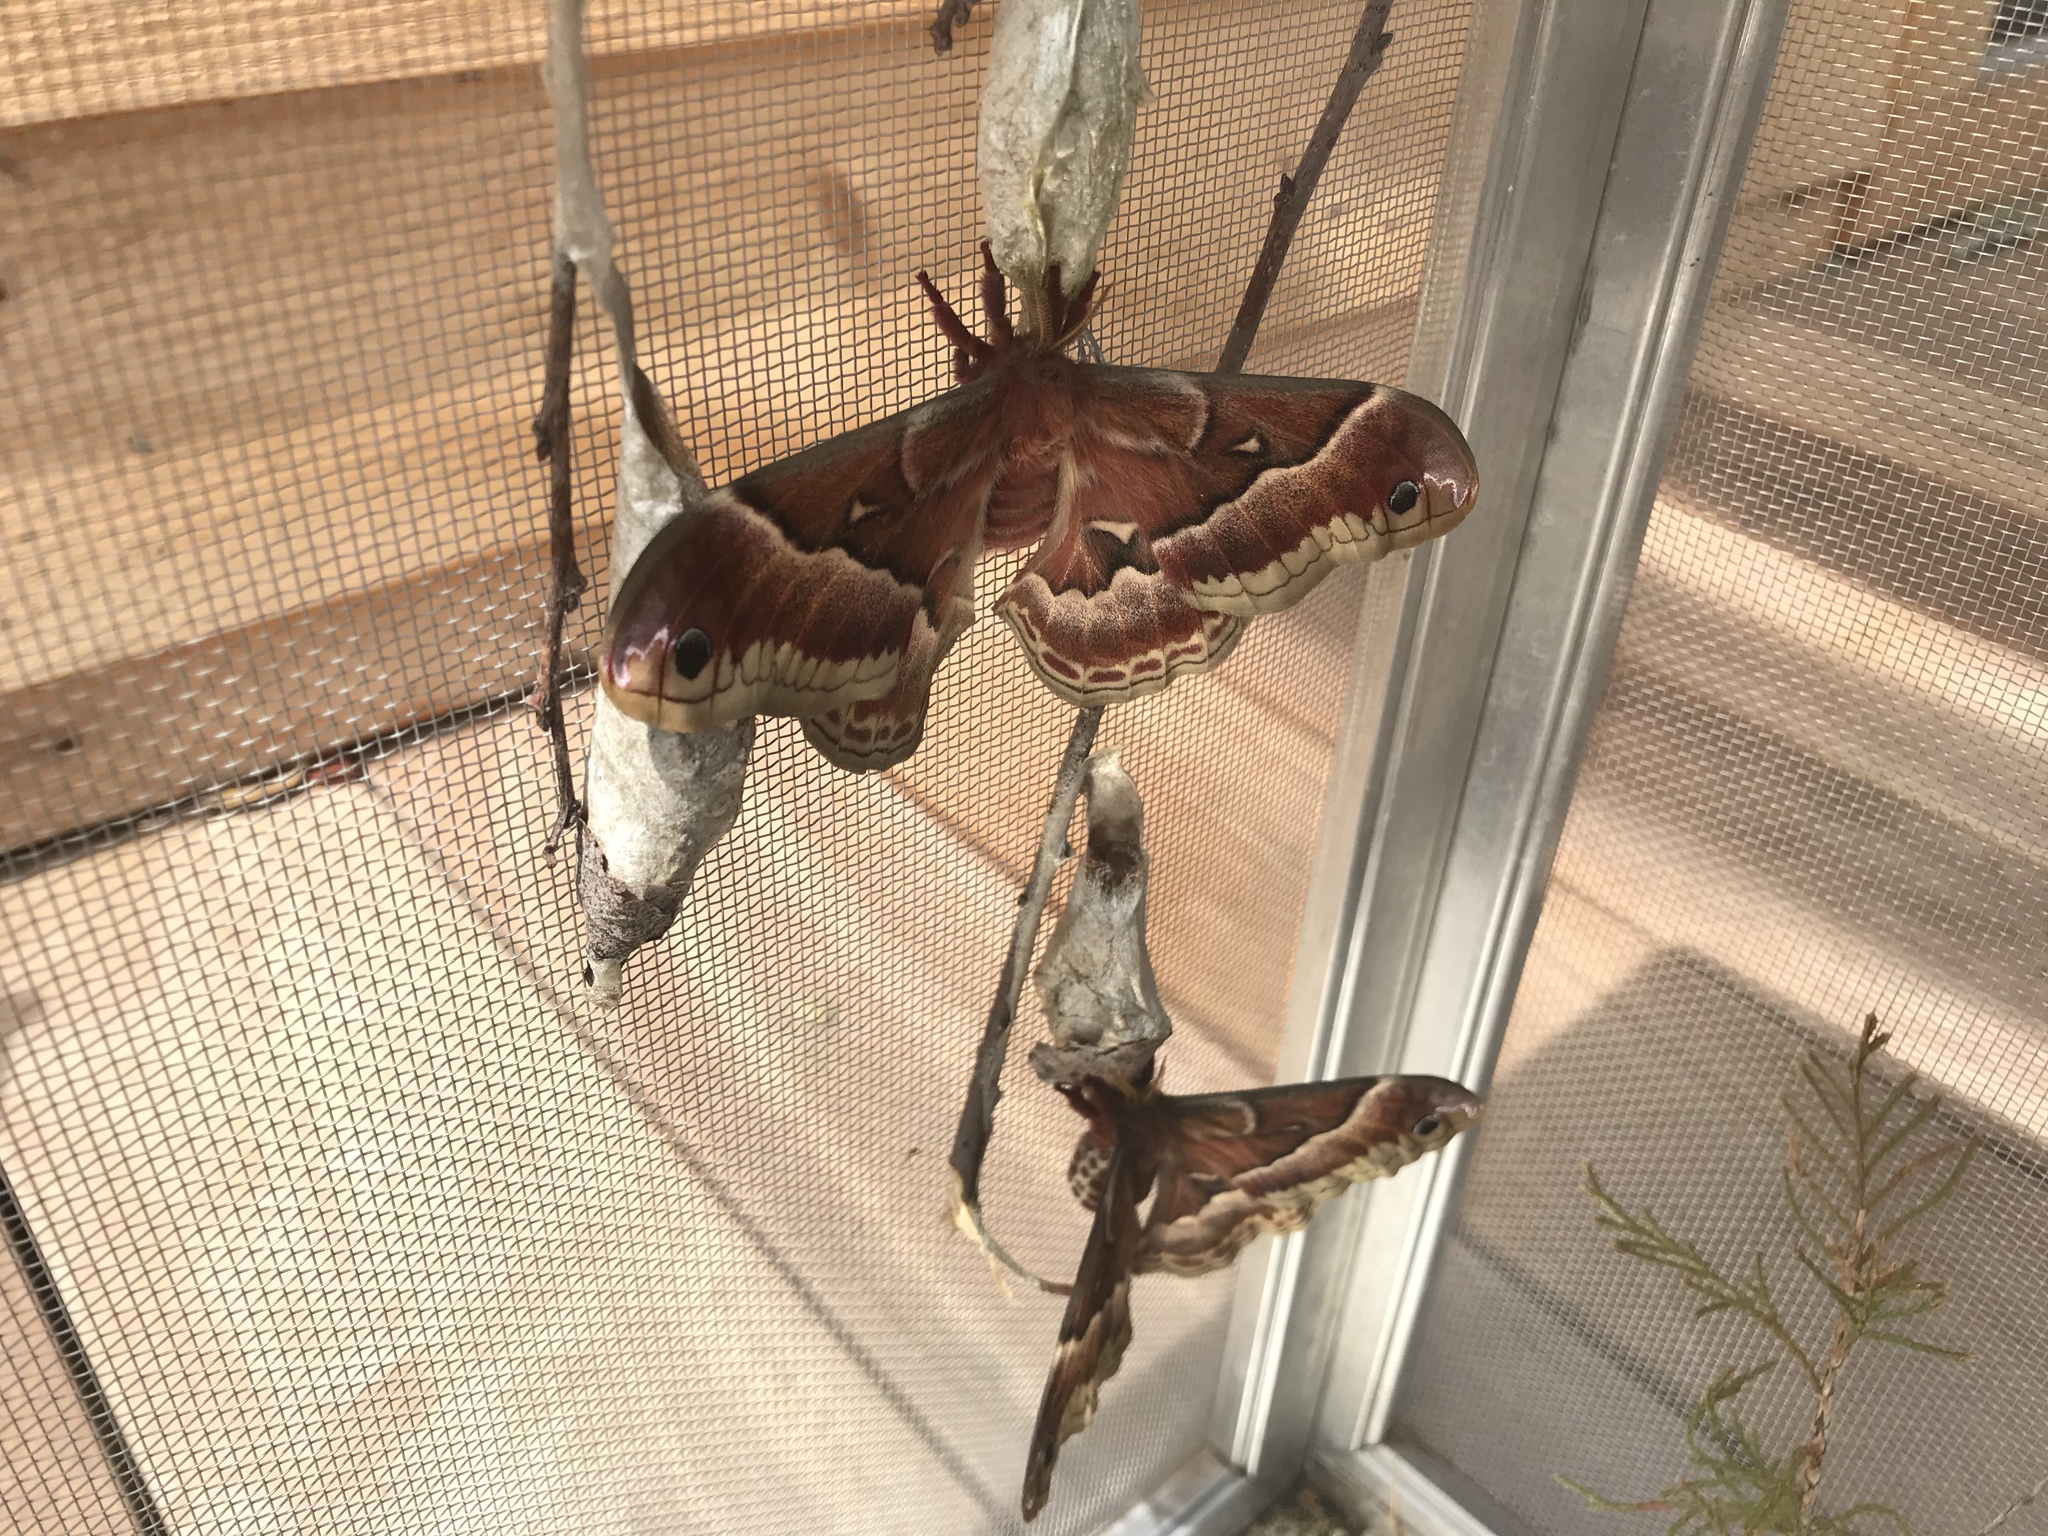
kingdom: Animalia
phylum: Arthropoda
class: Insecta
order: Lepidoptera
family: Saturniidae
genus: Callosamia
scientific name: Callosamia promethea
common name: Promethea silkmoth
